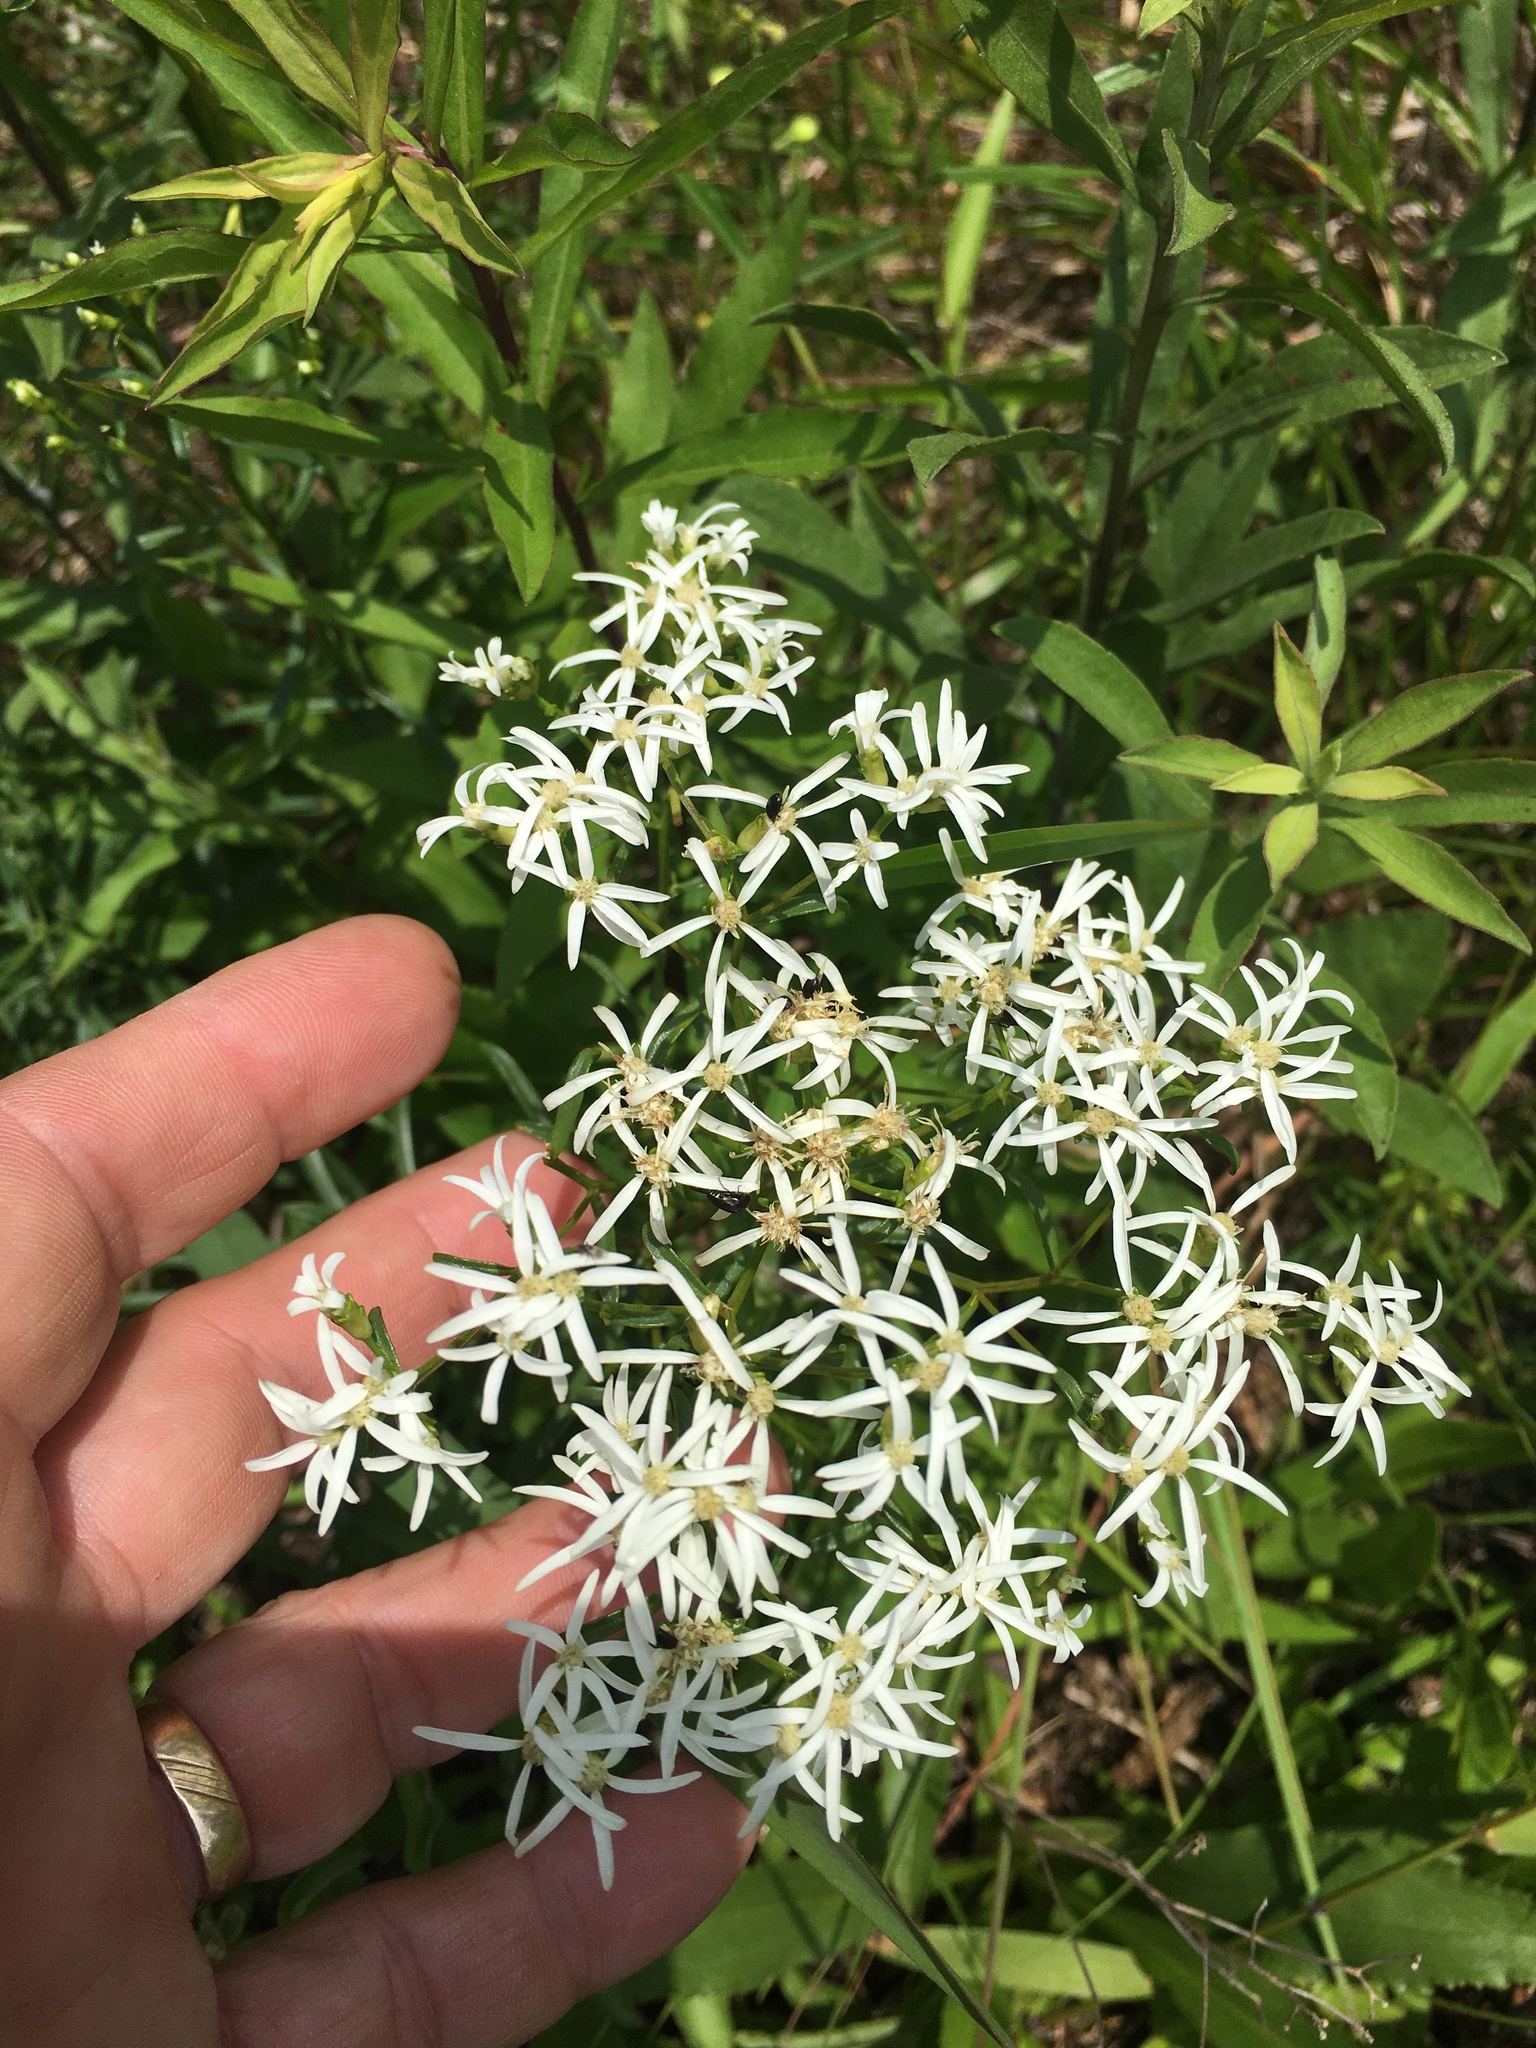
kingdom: Plantae
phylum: Tracheophyta
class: Magnoliopsida
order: Asterales
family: Asteraceae
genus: Sericocarpus
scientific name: Sericocarpus linifolius
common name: Narrow-leaf aster
